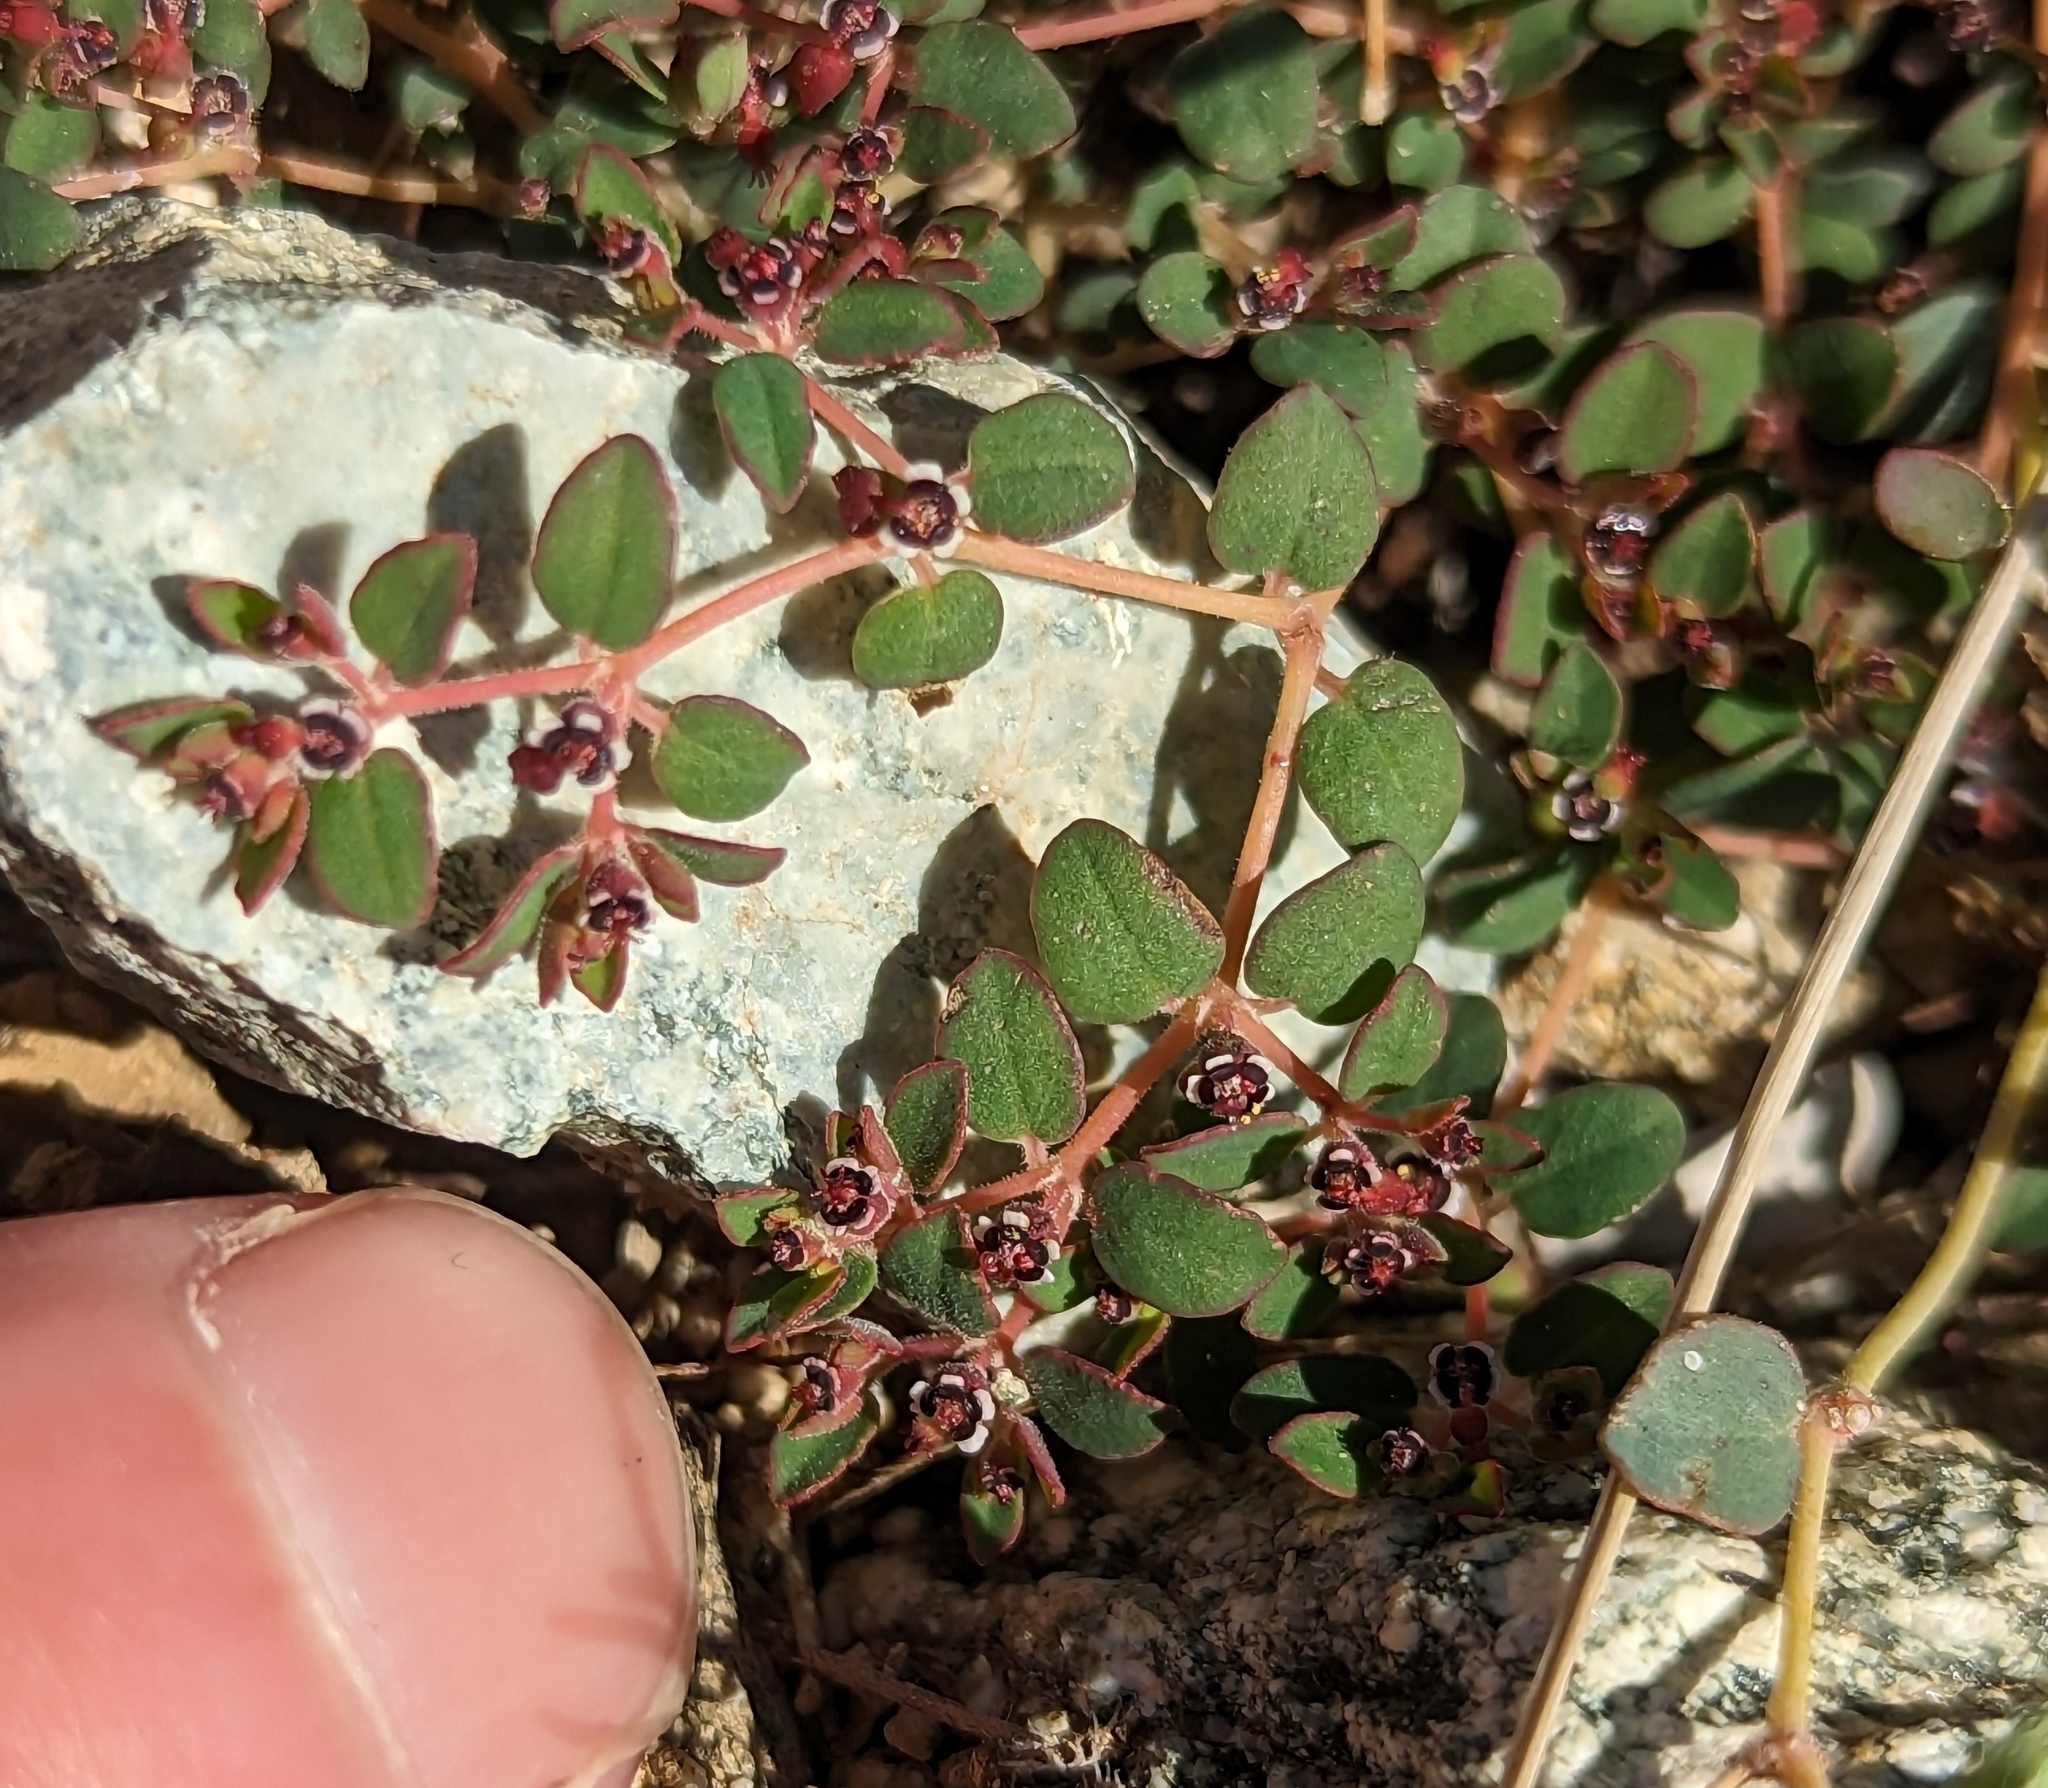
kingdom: Plantae
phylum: Tracheophyta
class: Magnoliopsida
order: Malpighiales
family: Euphorbiaceae
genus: Euphorbia
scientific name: Euphorbia polycarpa
